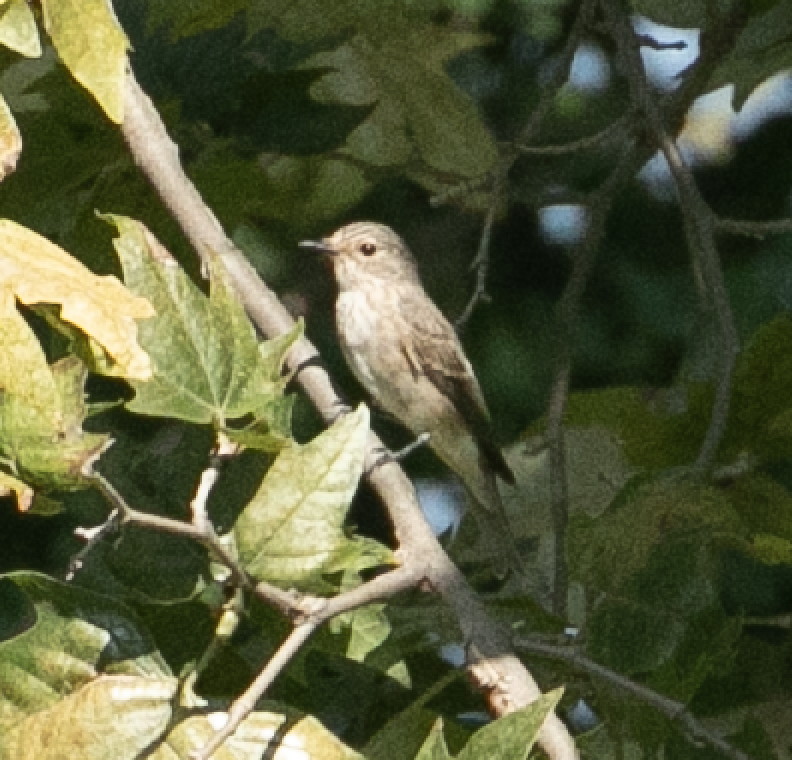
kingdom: Animalia
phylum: Chordata
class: Aves
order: Passeriformes
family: Muscicapidae
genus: Muscicapa
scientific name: Muscicapa striata
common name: Spotted flycatcher
